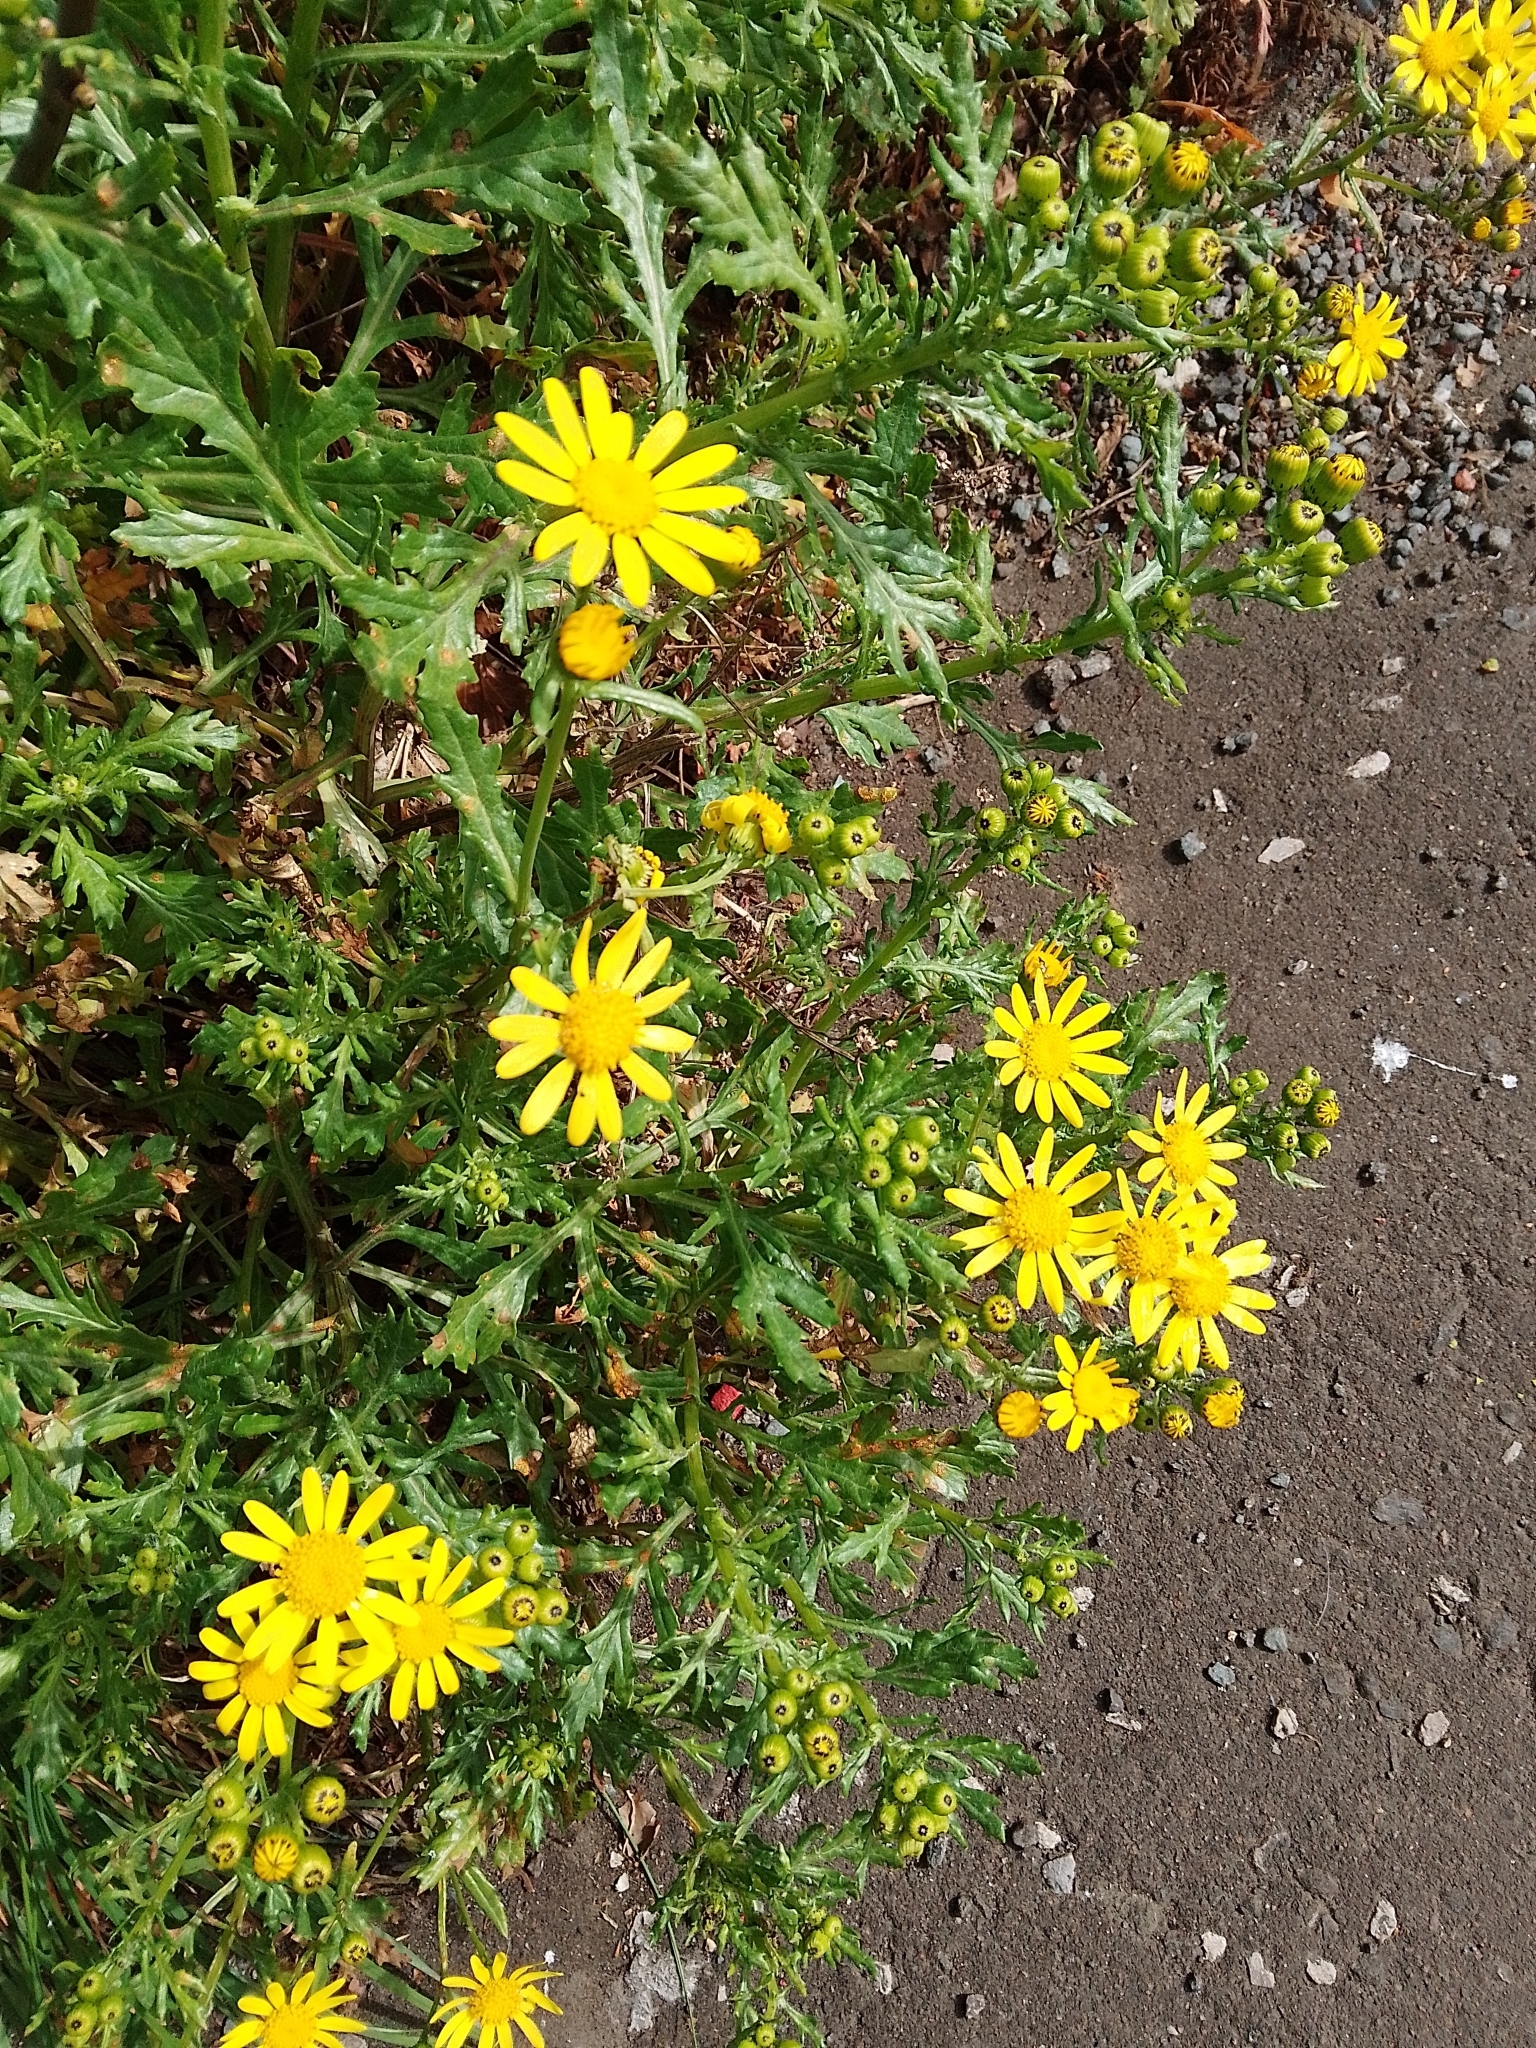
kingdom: Plantae
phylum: Tracheophyta
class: Magnoliopsida
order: Asterales
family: Asteraceae
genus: Senecio
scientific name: Senecio squalidus
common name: Oxford ragwort
